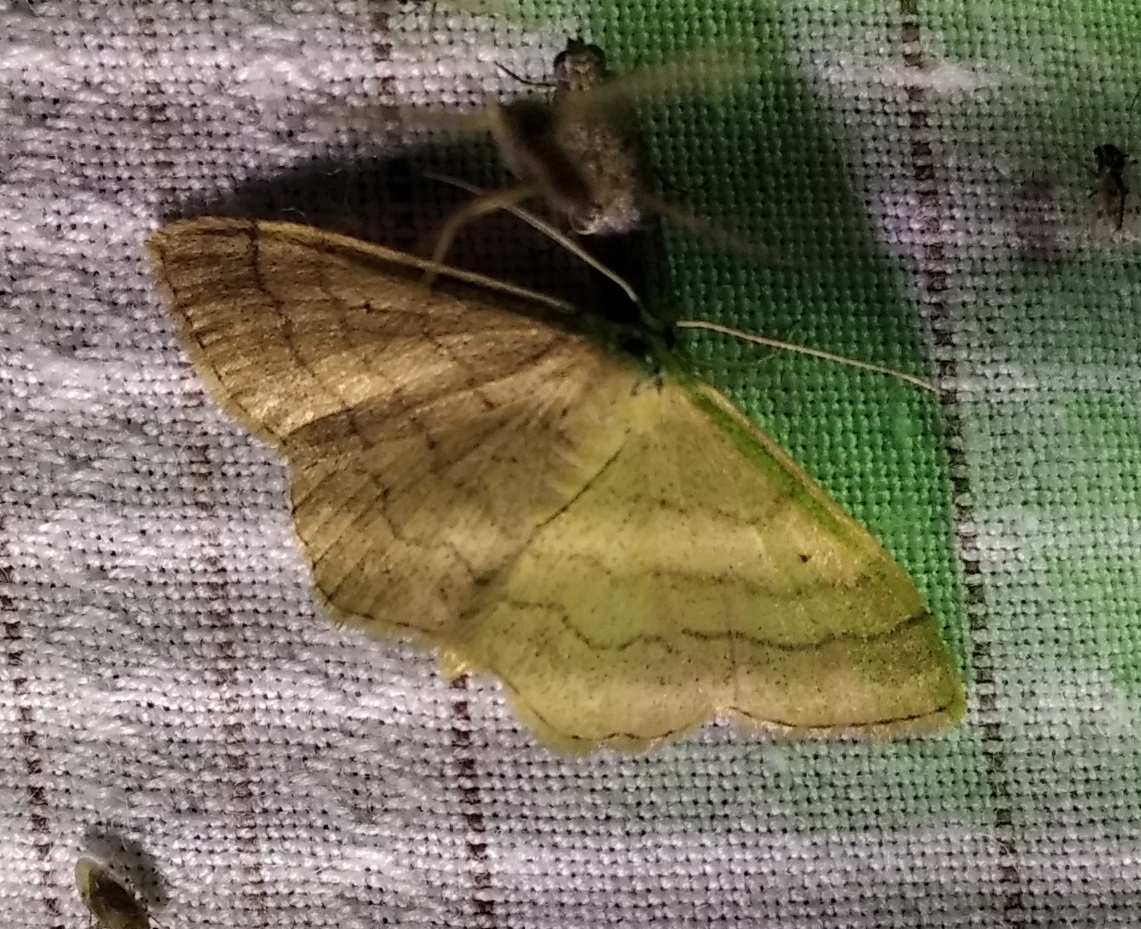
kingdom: Animalia
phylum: Arthropoda
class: Insecta
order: Lepidoptera
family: Geometridae
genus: Scopula
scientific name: Scopula rubiginata
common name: Tawny wave
